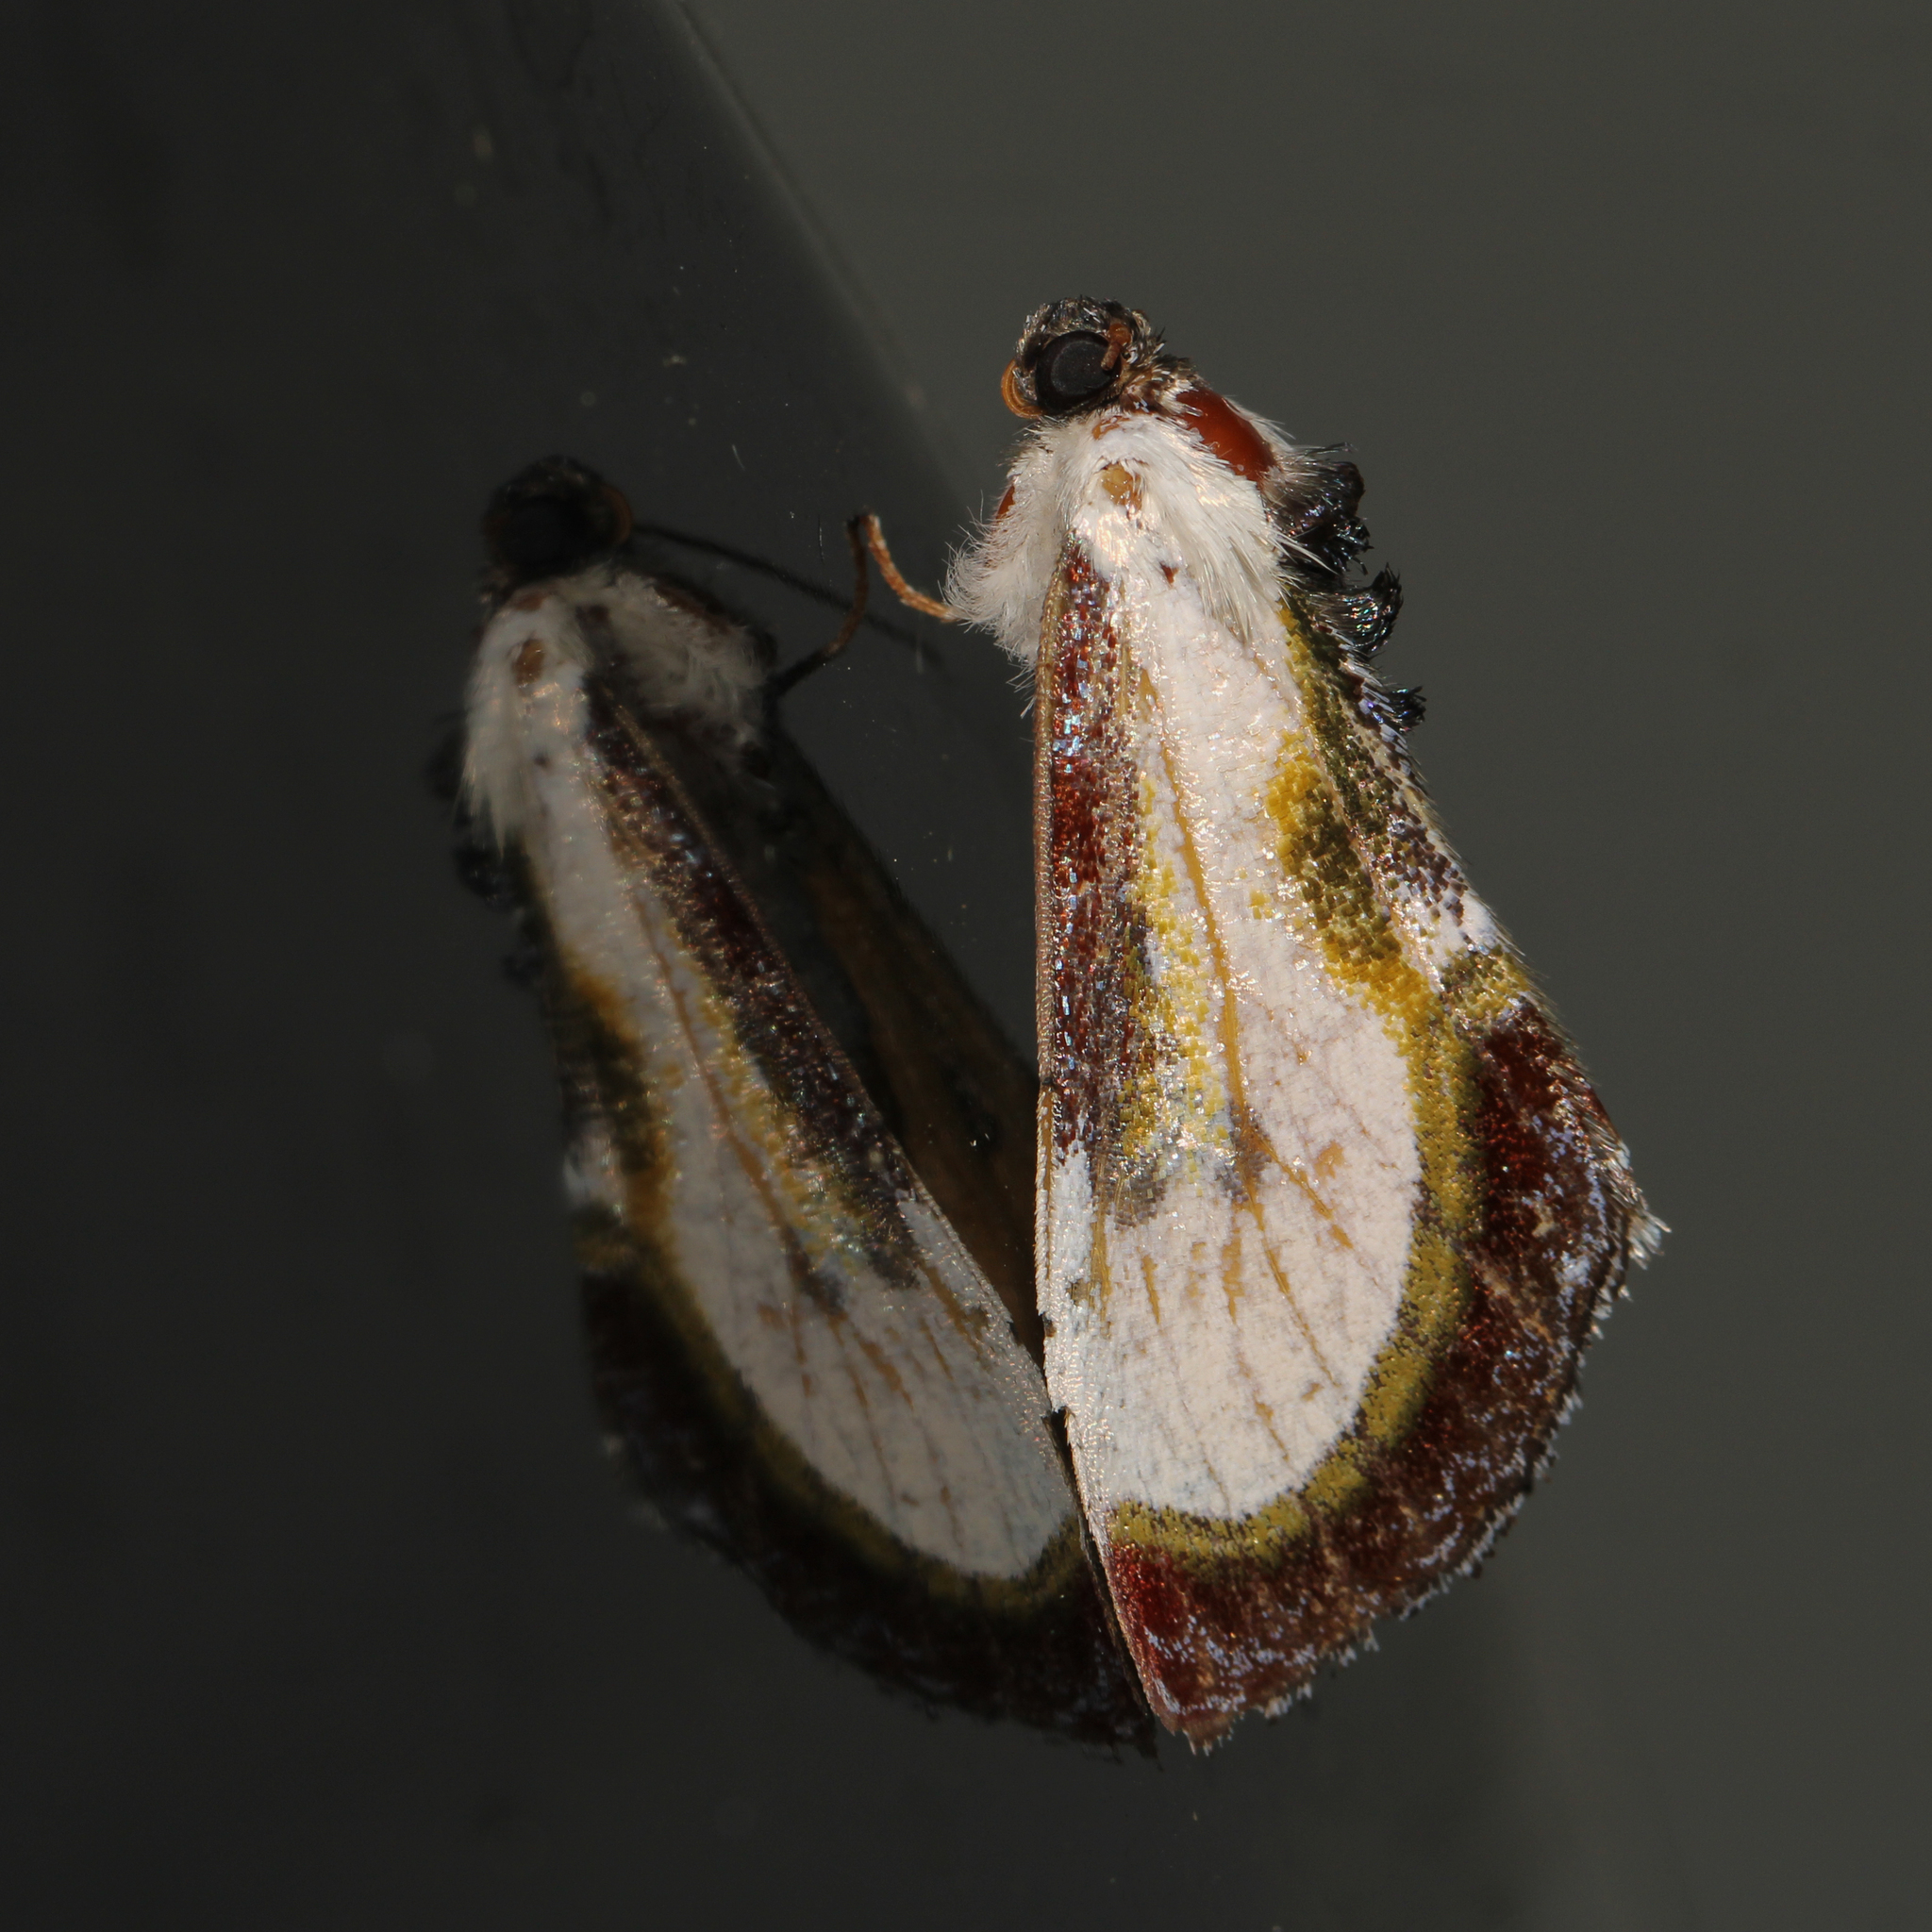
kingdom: Animalia
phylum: Arthropoda
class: Insecta
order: Lepidoptera
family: Noctuidae
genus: Eudryas
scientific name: Eudryas grata
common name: Beautiful wood-nymph
